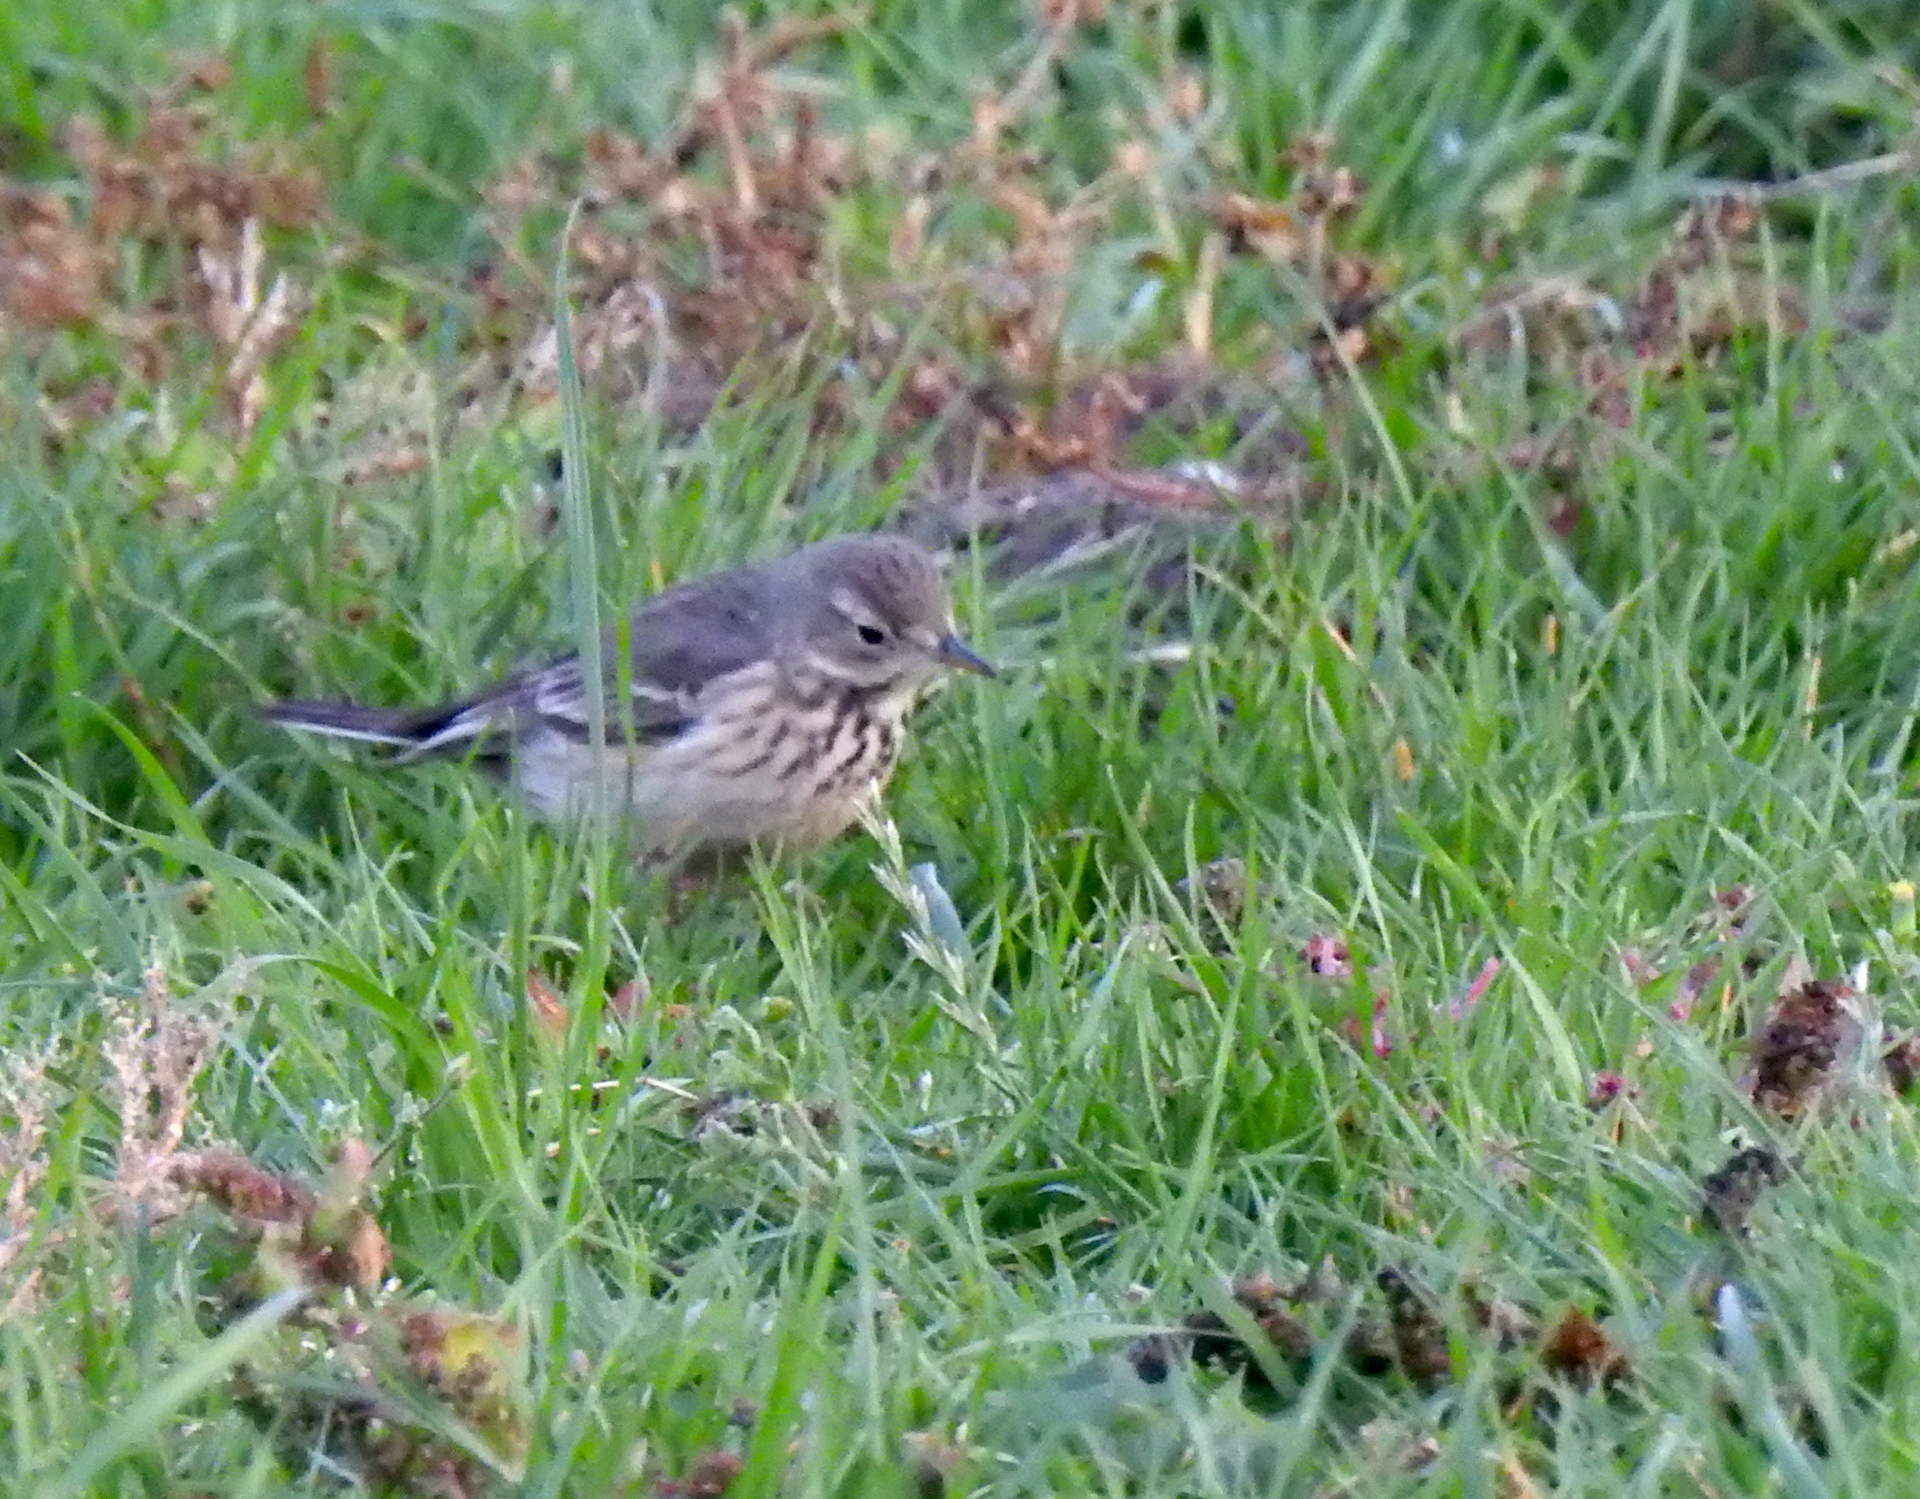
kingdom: Animalia
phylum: Chordata
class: Aves
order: Passeriformes
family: Motacillidae
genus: Anthus
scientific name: Anthus rubescens
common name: Buff-bellied pipit
